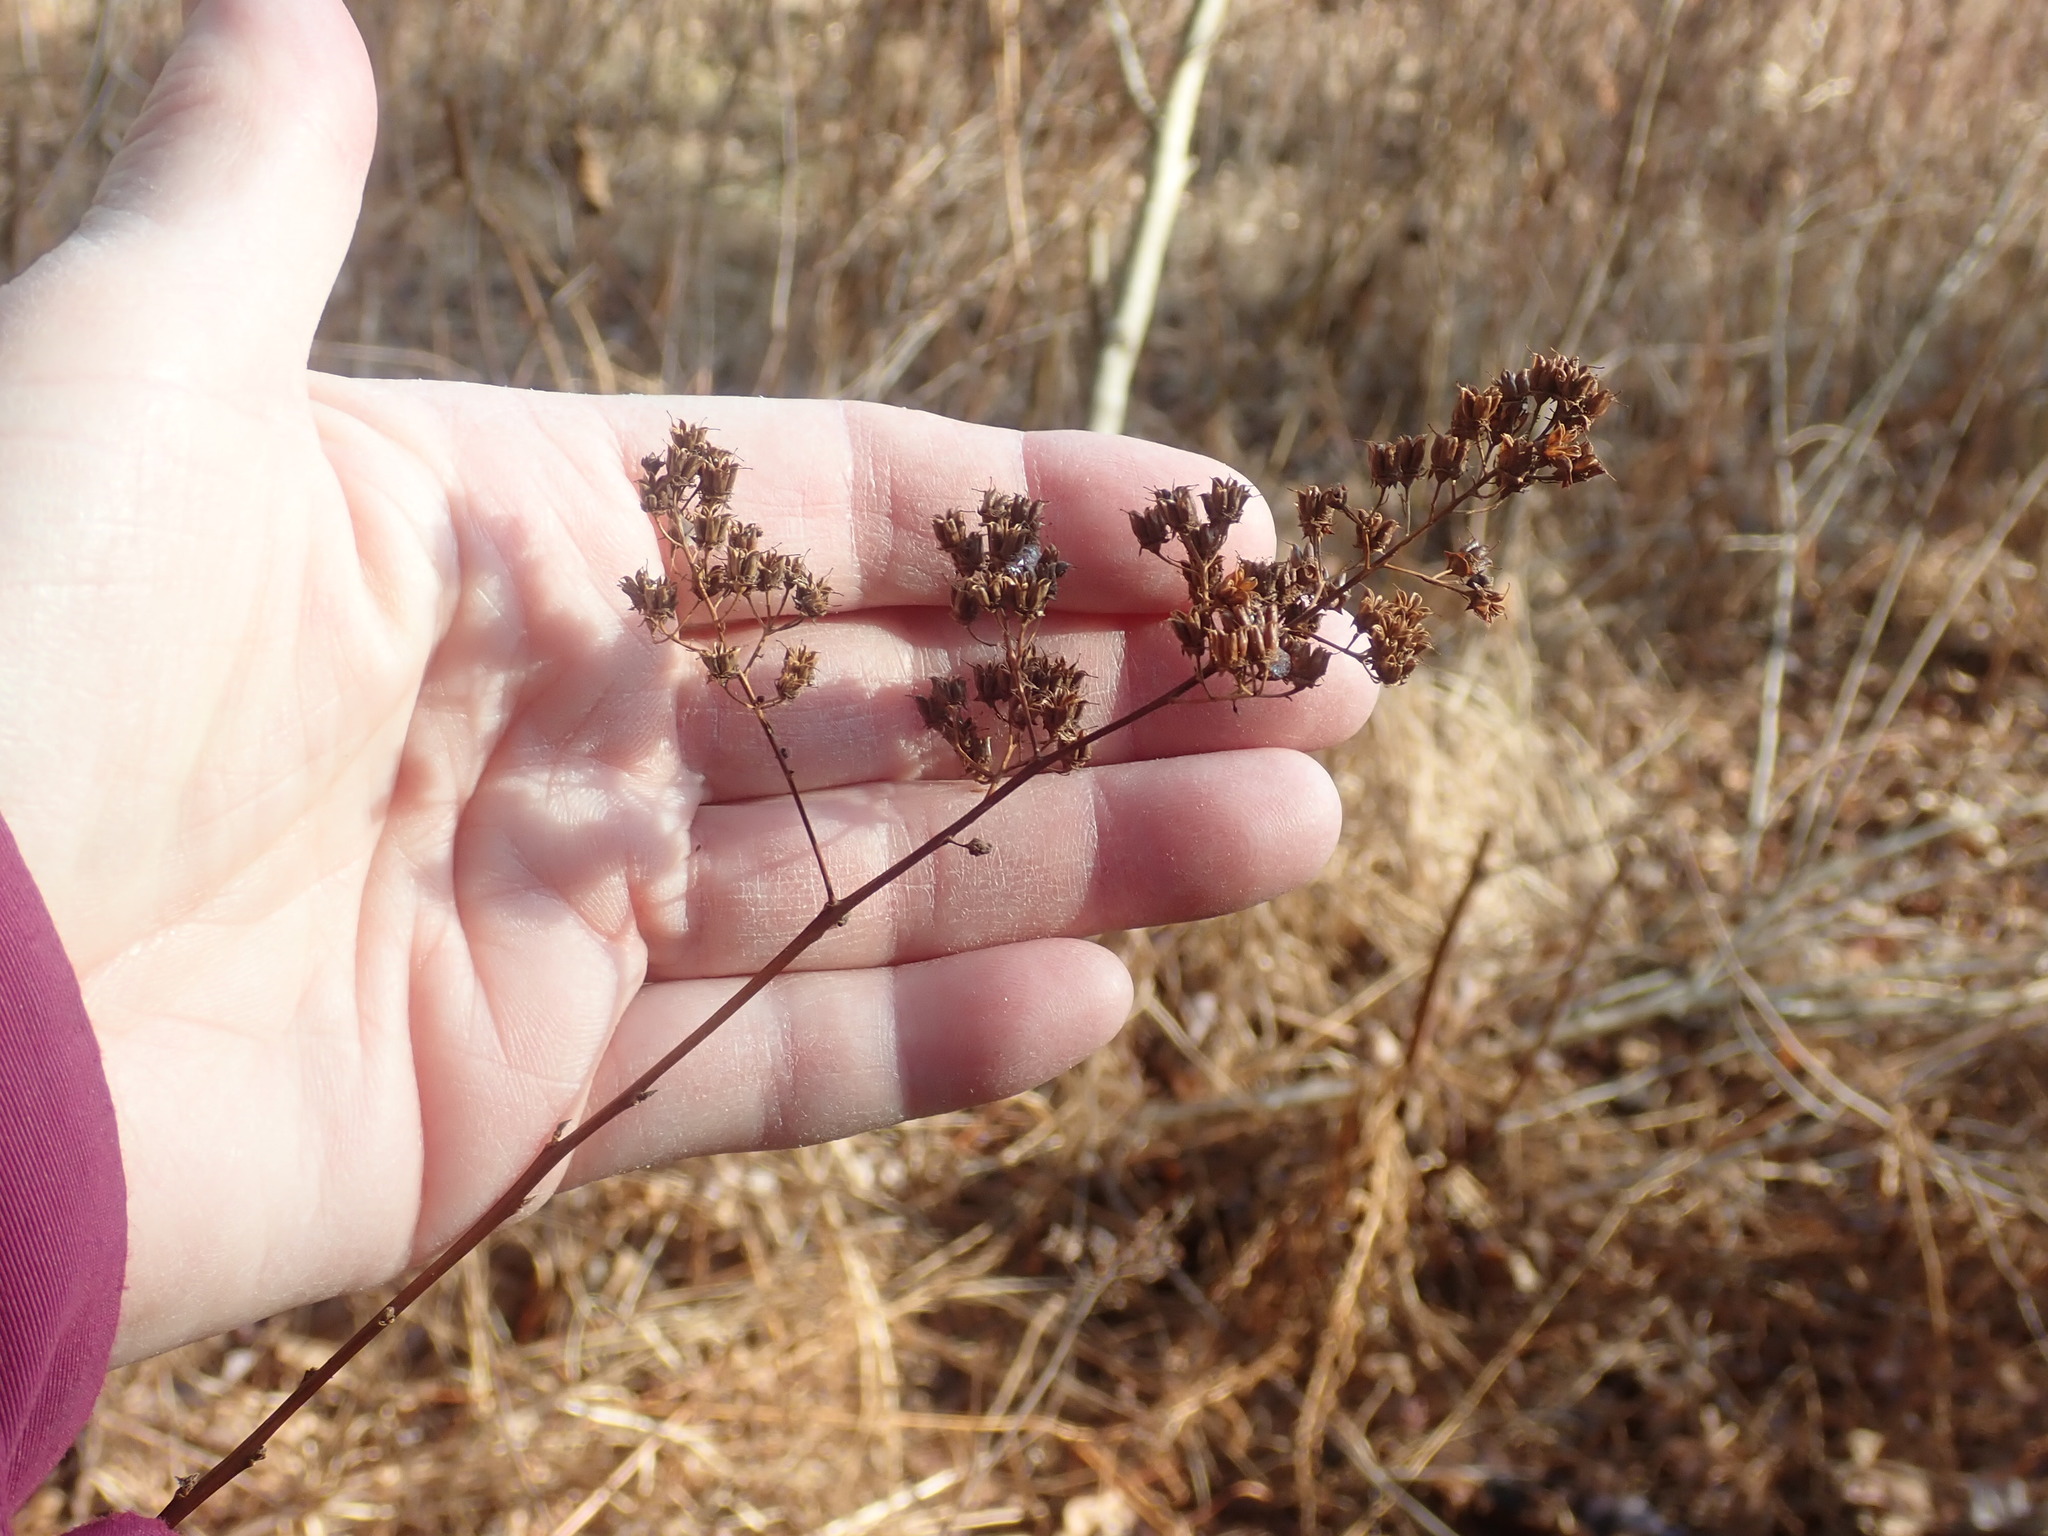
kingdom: Plantae
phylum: Tracheophyta
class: Magnoliopsida
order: Rosales
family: Rosaceae
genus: Spiraea
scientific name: Spiraea alba
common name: Pale bridewort
